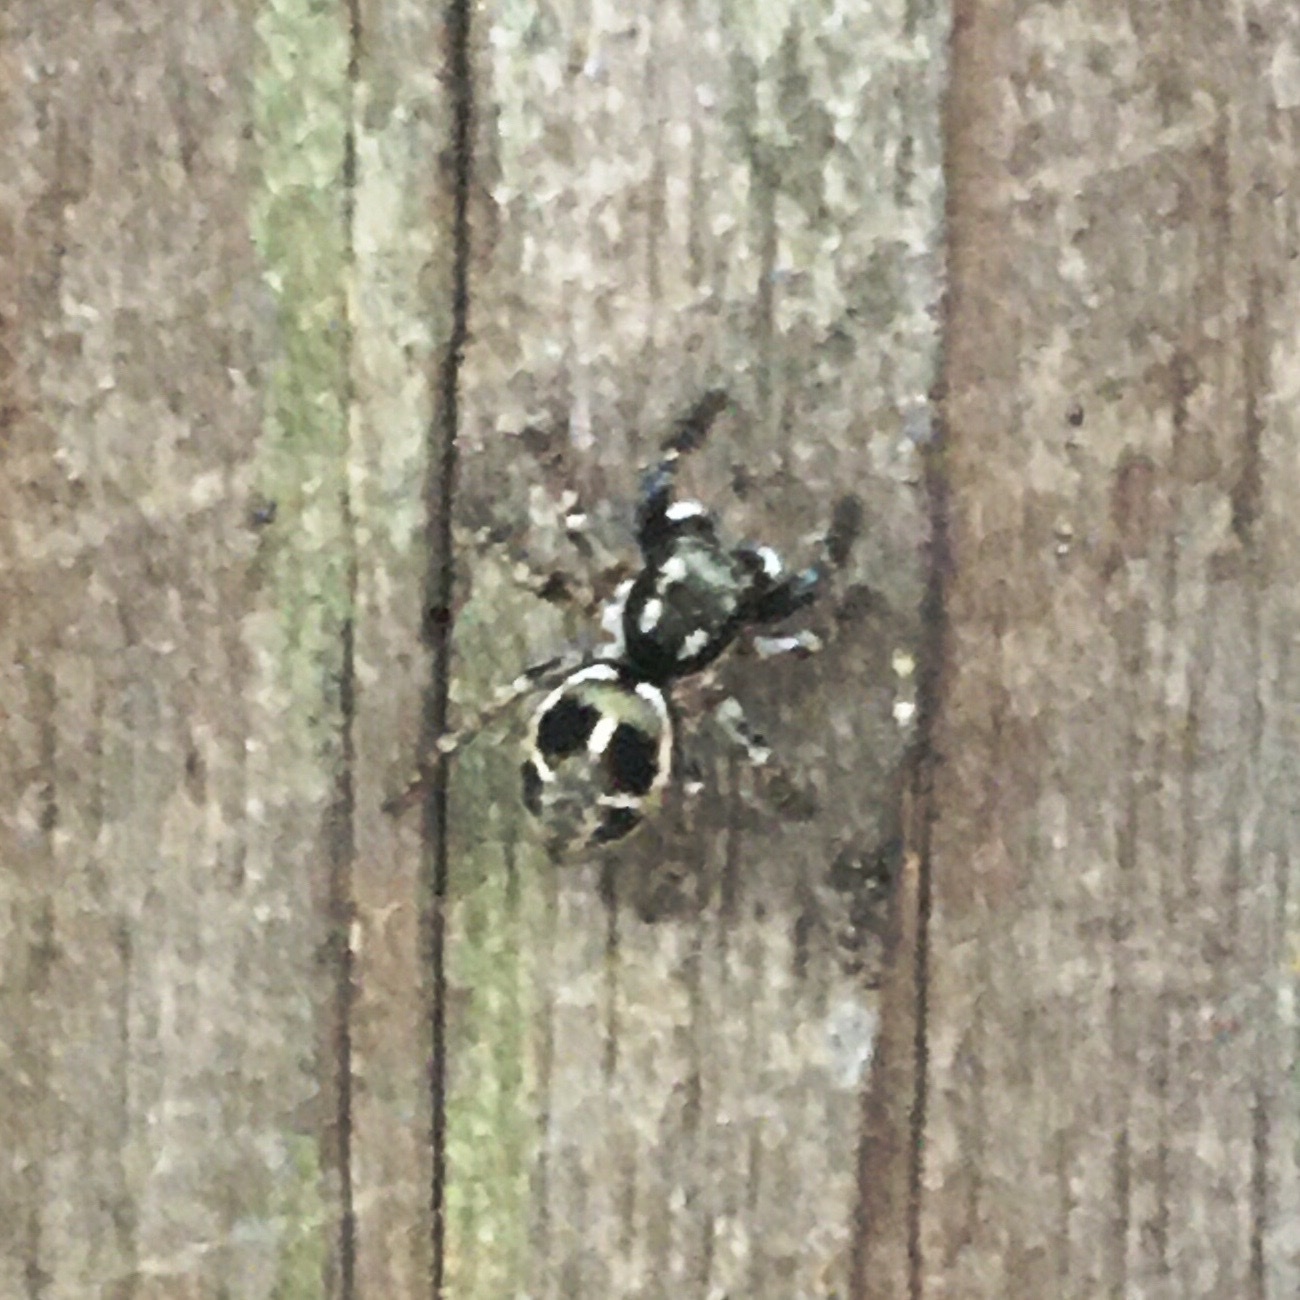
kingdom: Animalia
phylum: Arthropoda
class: Arachnida
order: Araneae
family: Salticidae
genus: Anasaitis
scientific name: Anasaitis canosa
